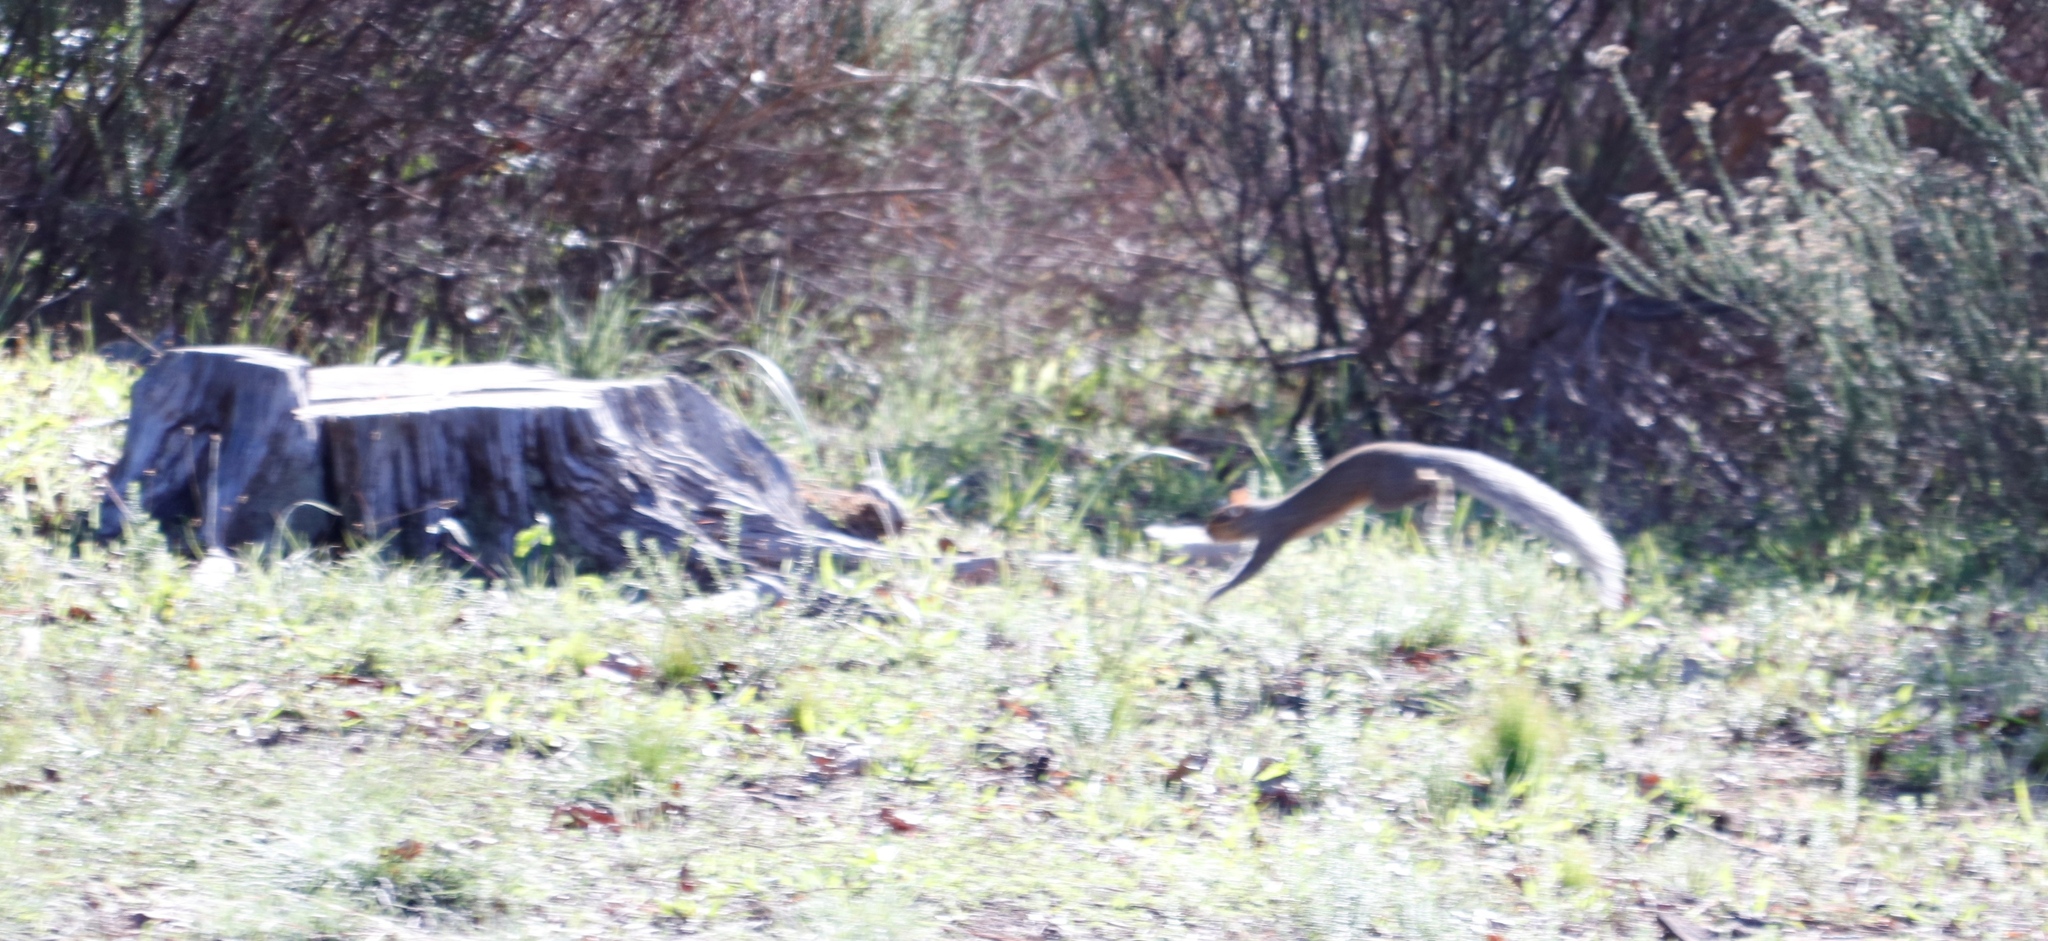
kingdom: Animalia
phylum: Chordata
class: Mammalia
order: Rodentia
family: Sciuridae
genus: Sciurus
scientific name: Sciurus carolinensis
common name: Eastern gray squirrel
